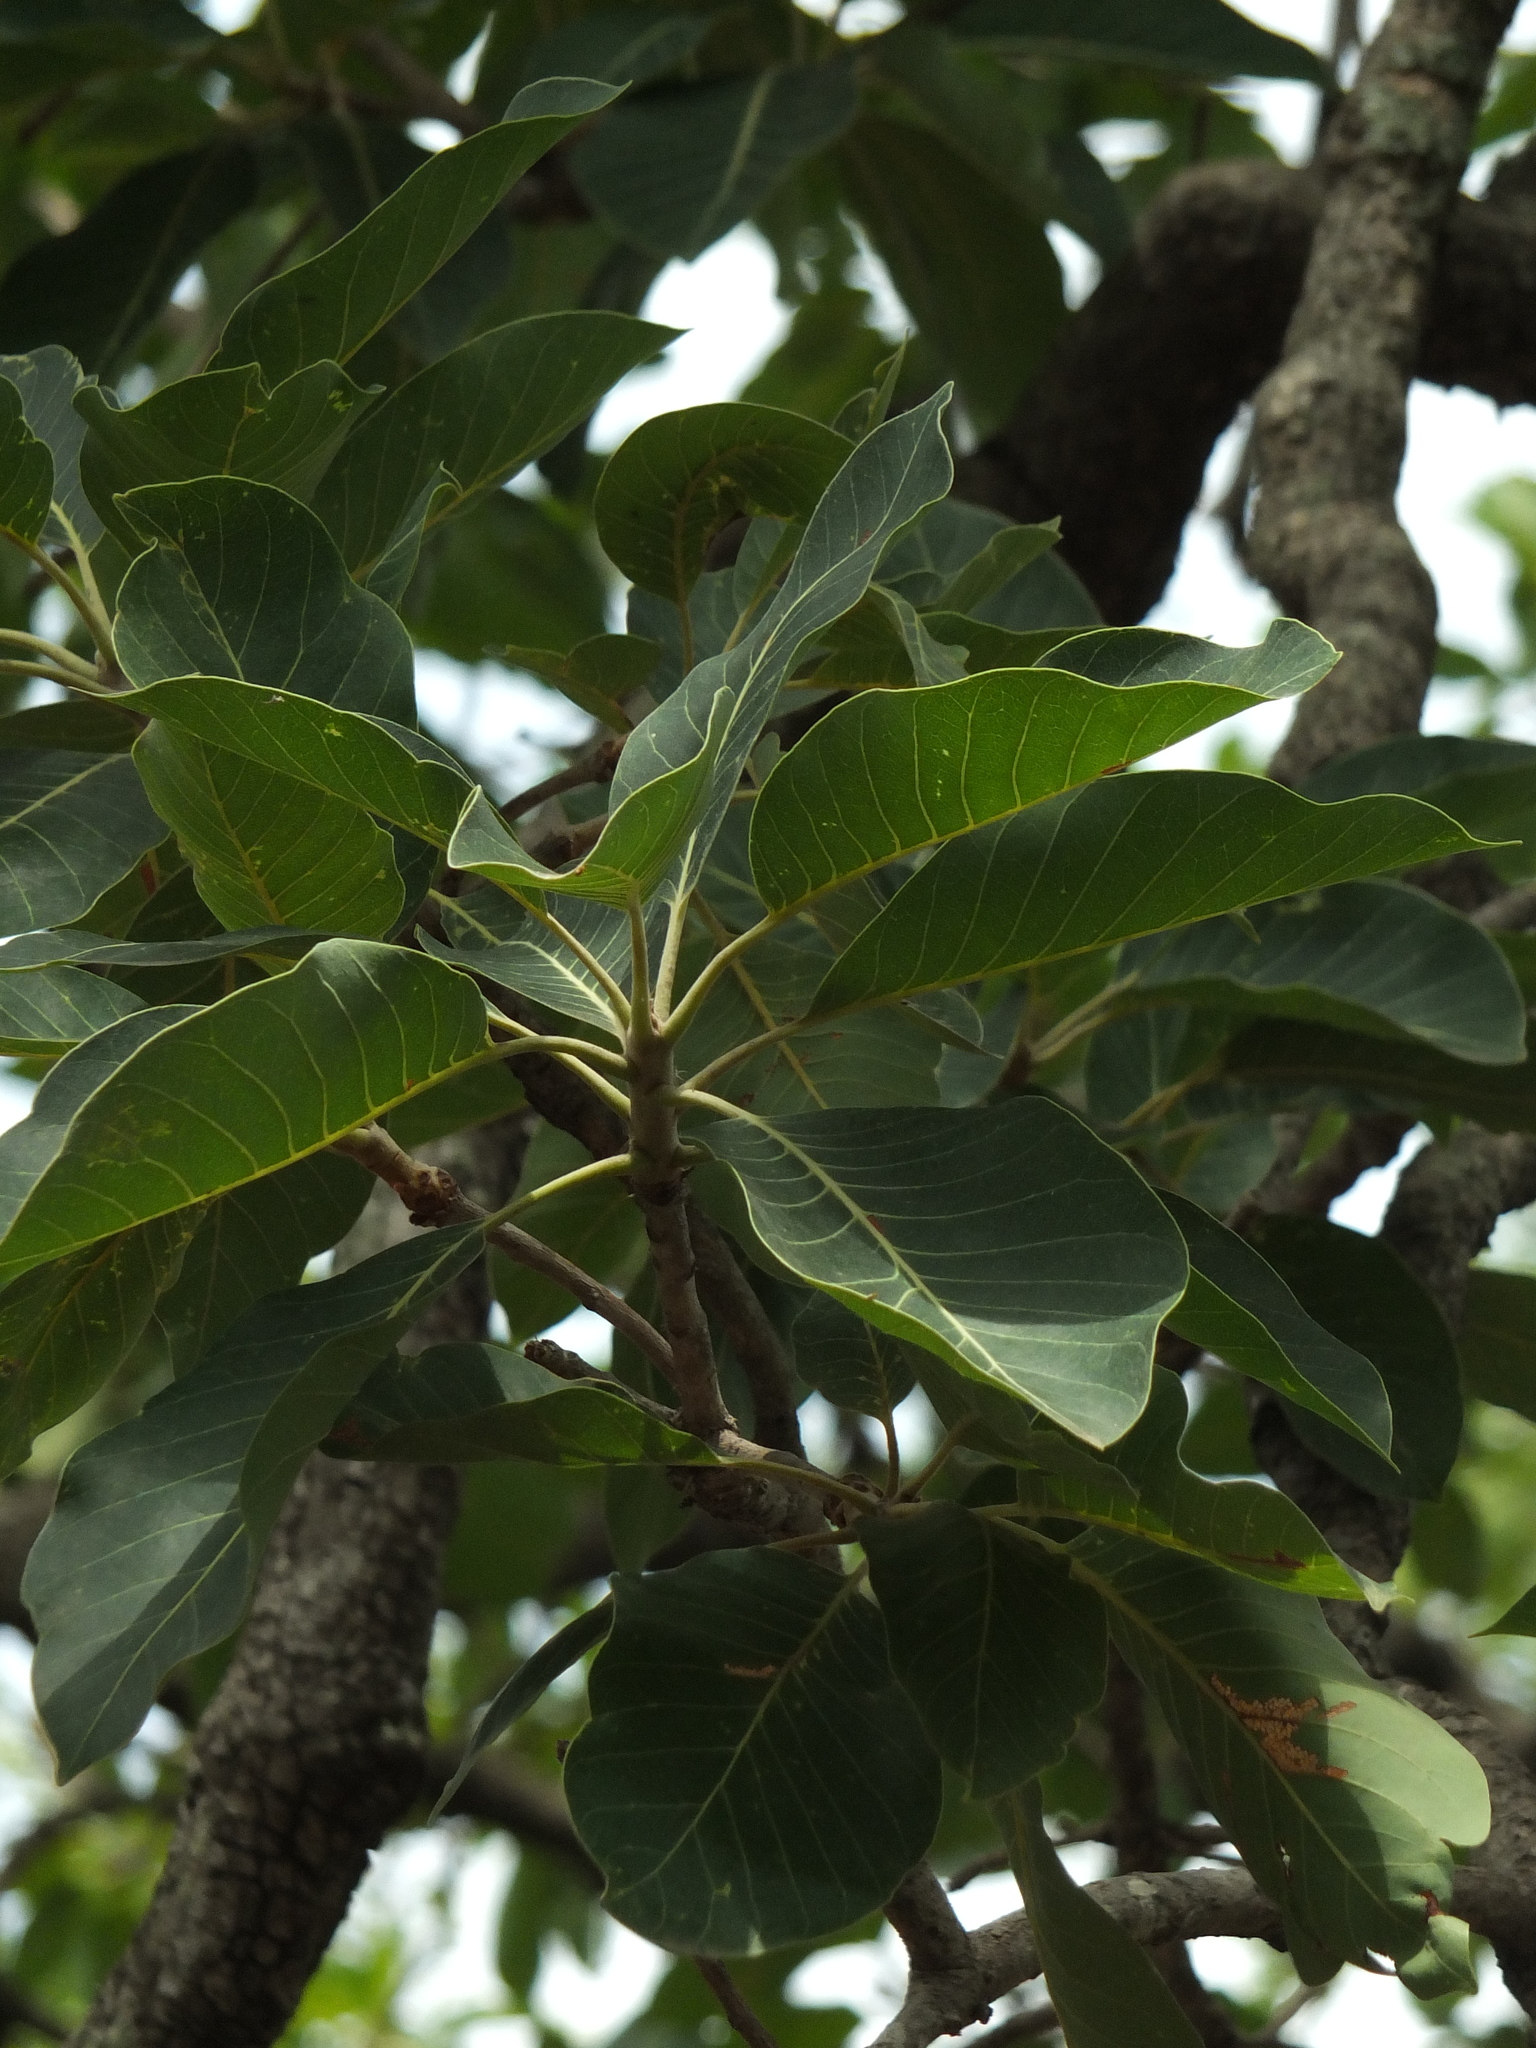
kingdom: Plantae
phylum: Tracheophyta
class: Magnoliopsida
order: Ericales
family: Sapotaceae
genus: Madhuca
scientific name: Madhuca longifolia
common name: Mowra-buttertree
